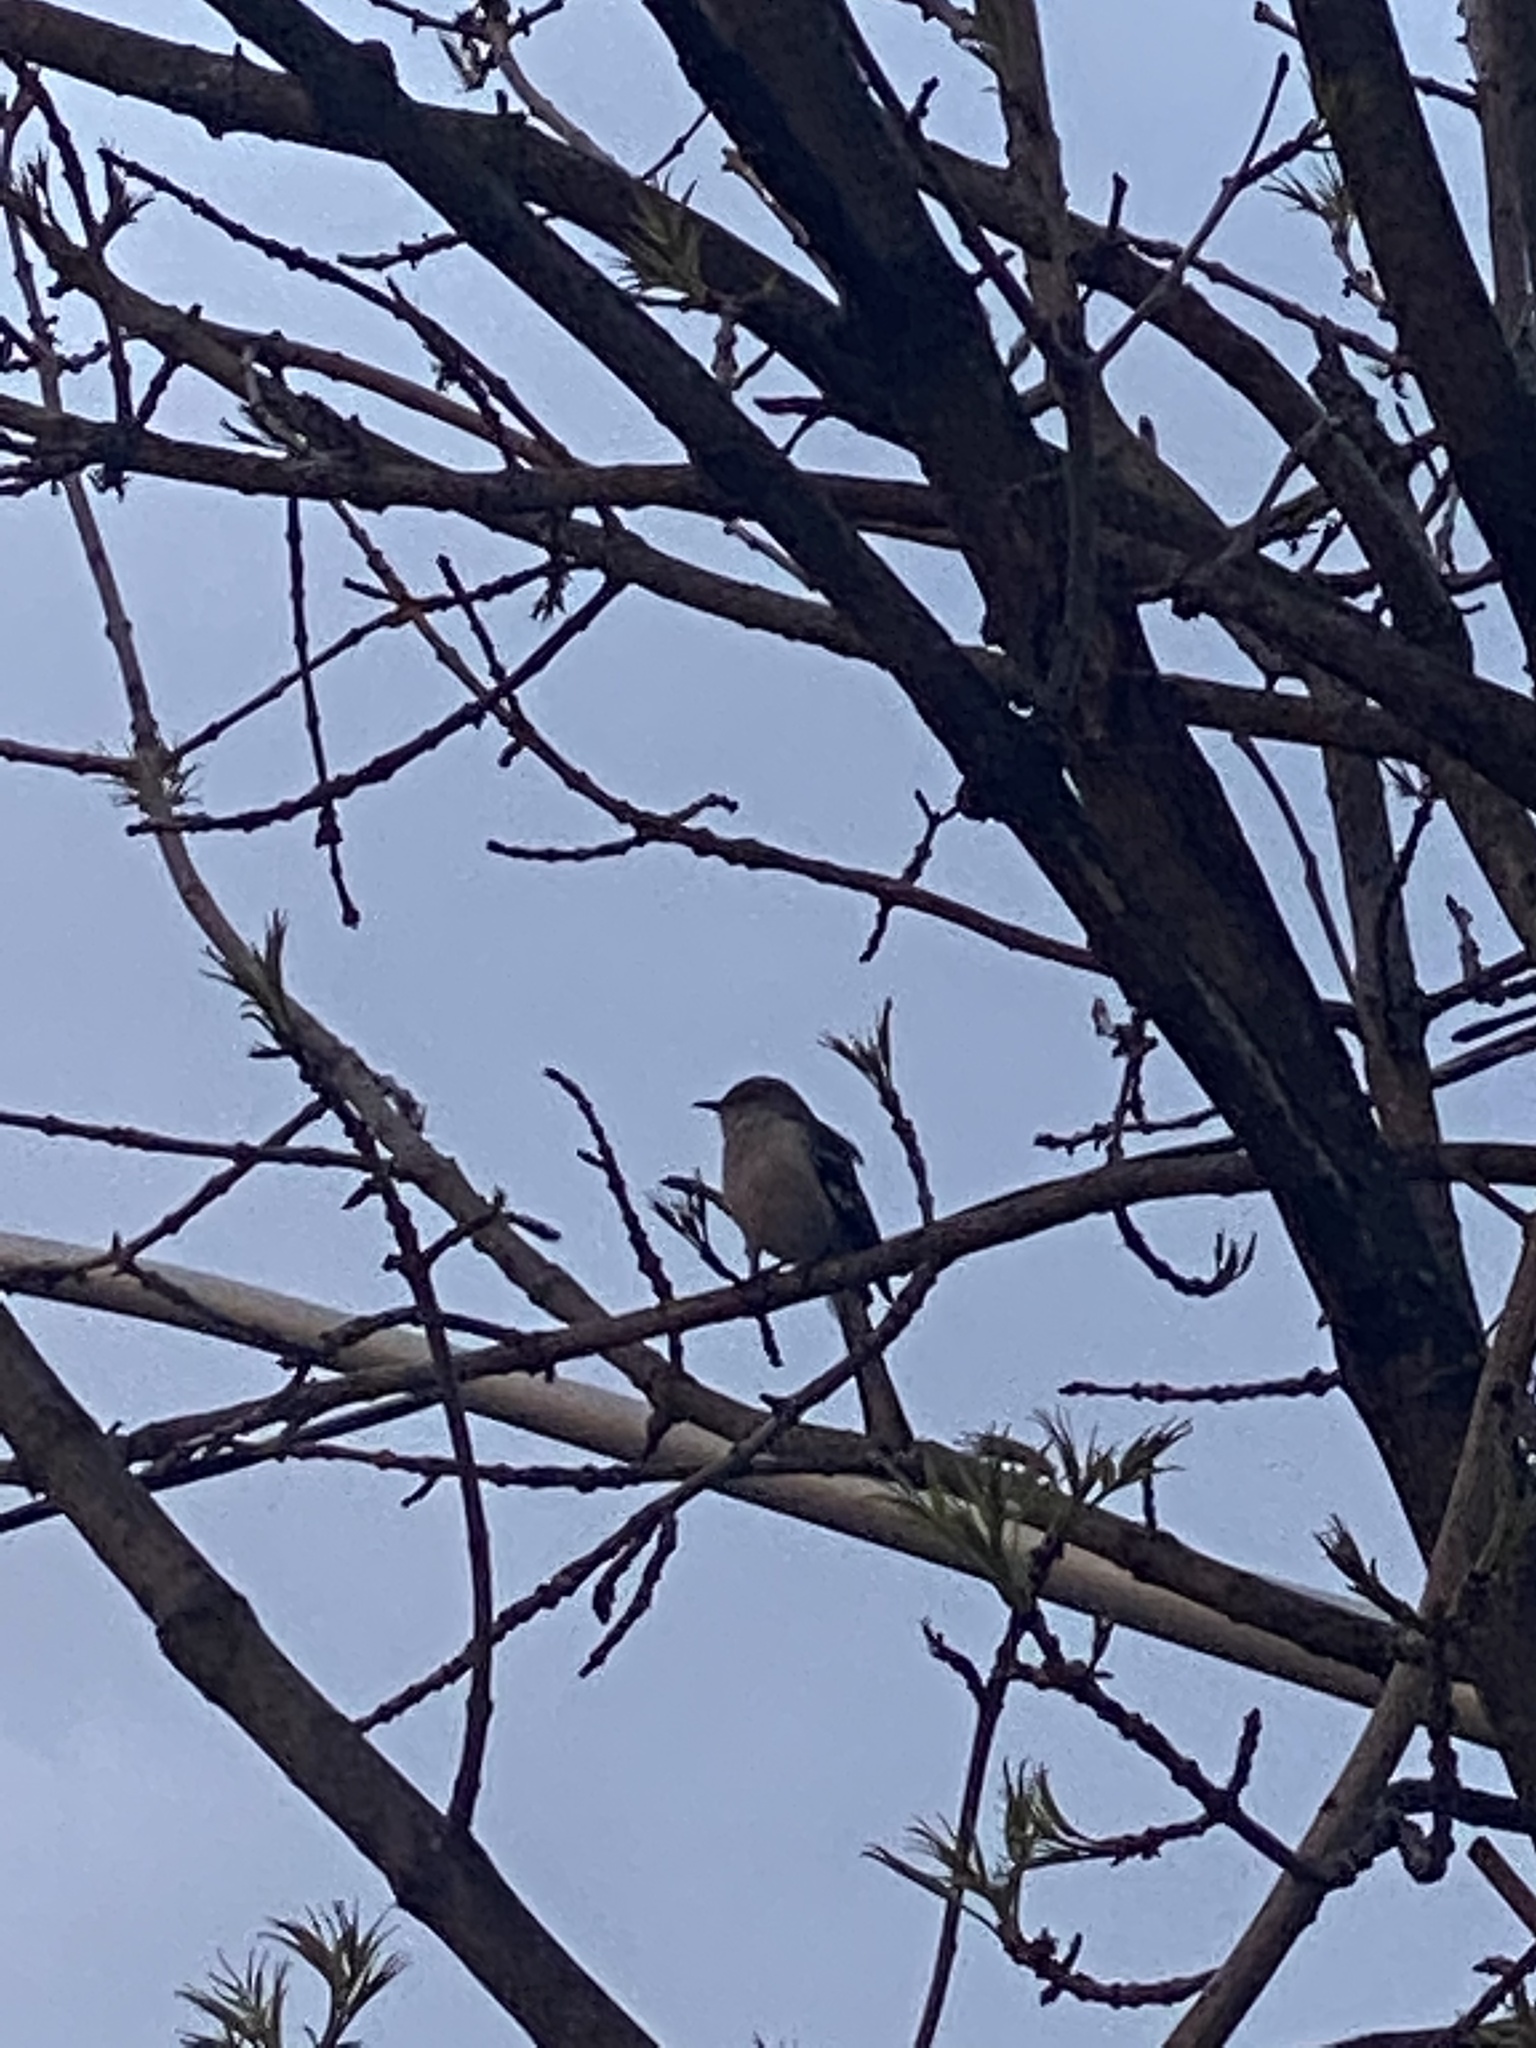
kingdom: Animalia
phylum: Chordata
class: Aves
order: Passeriformes
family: Mimidae
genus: Mimus
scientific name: Mimus polyglottos
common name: Northern mockingbird
